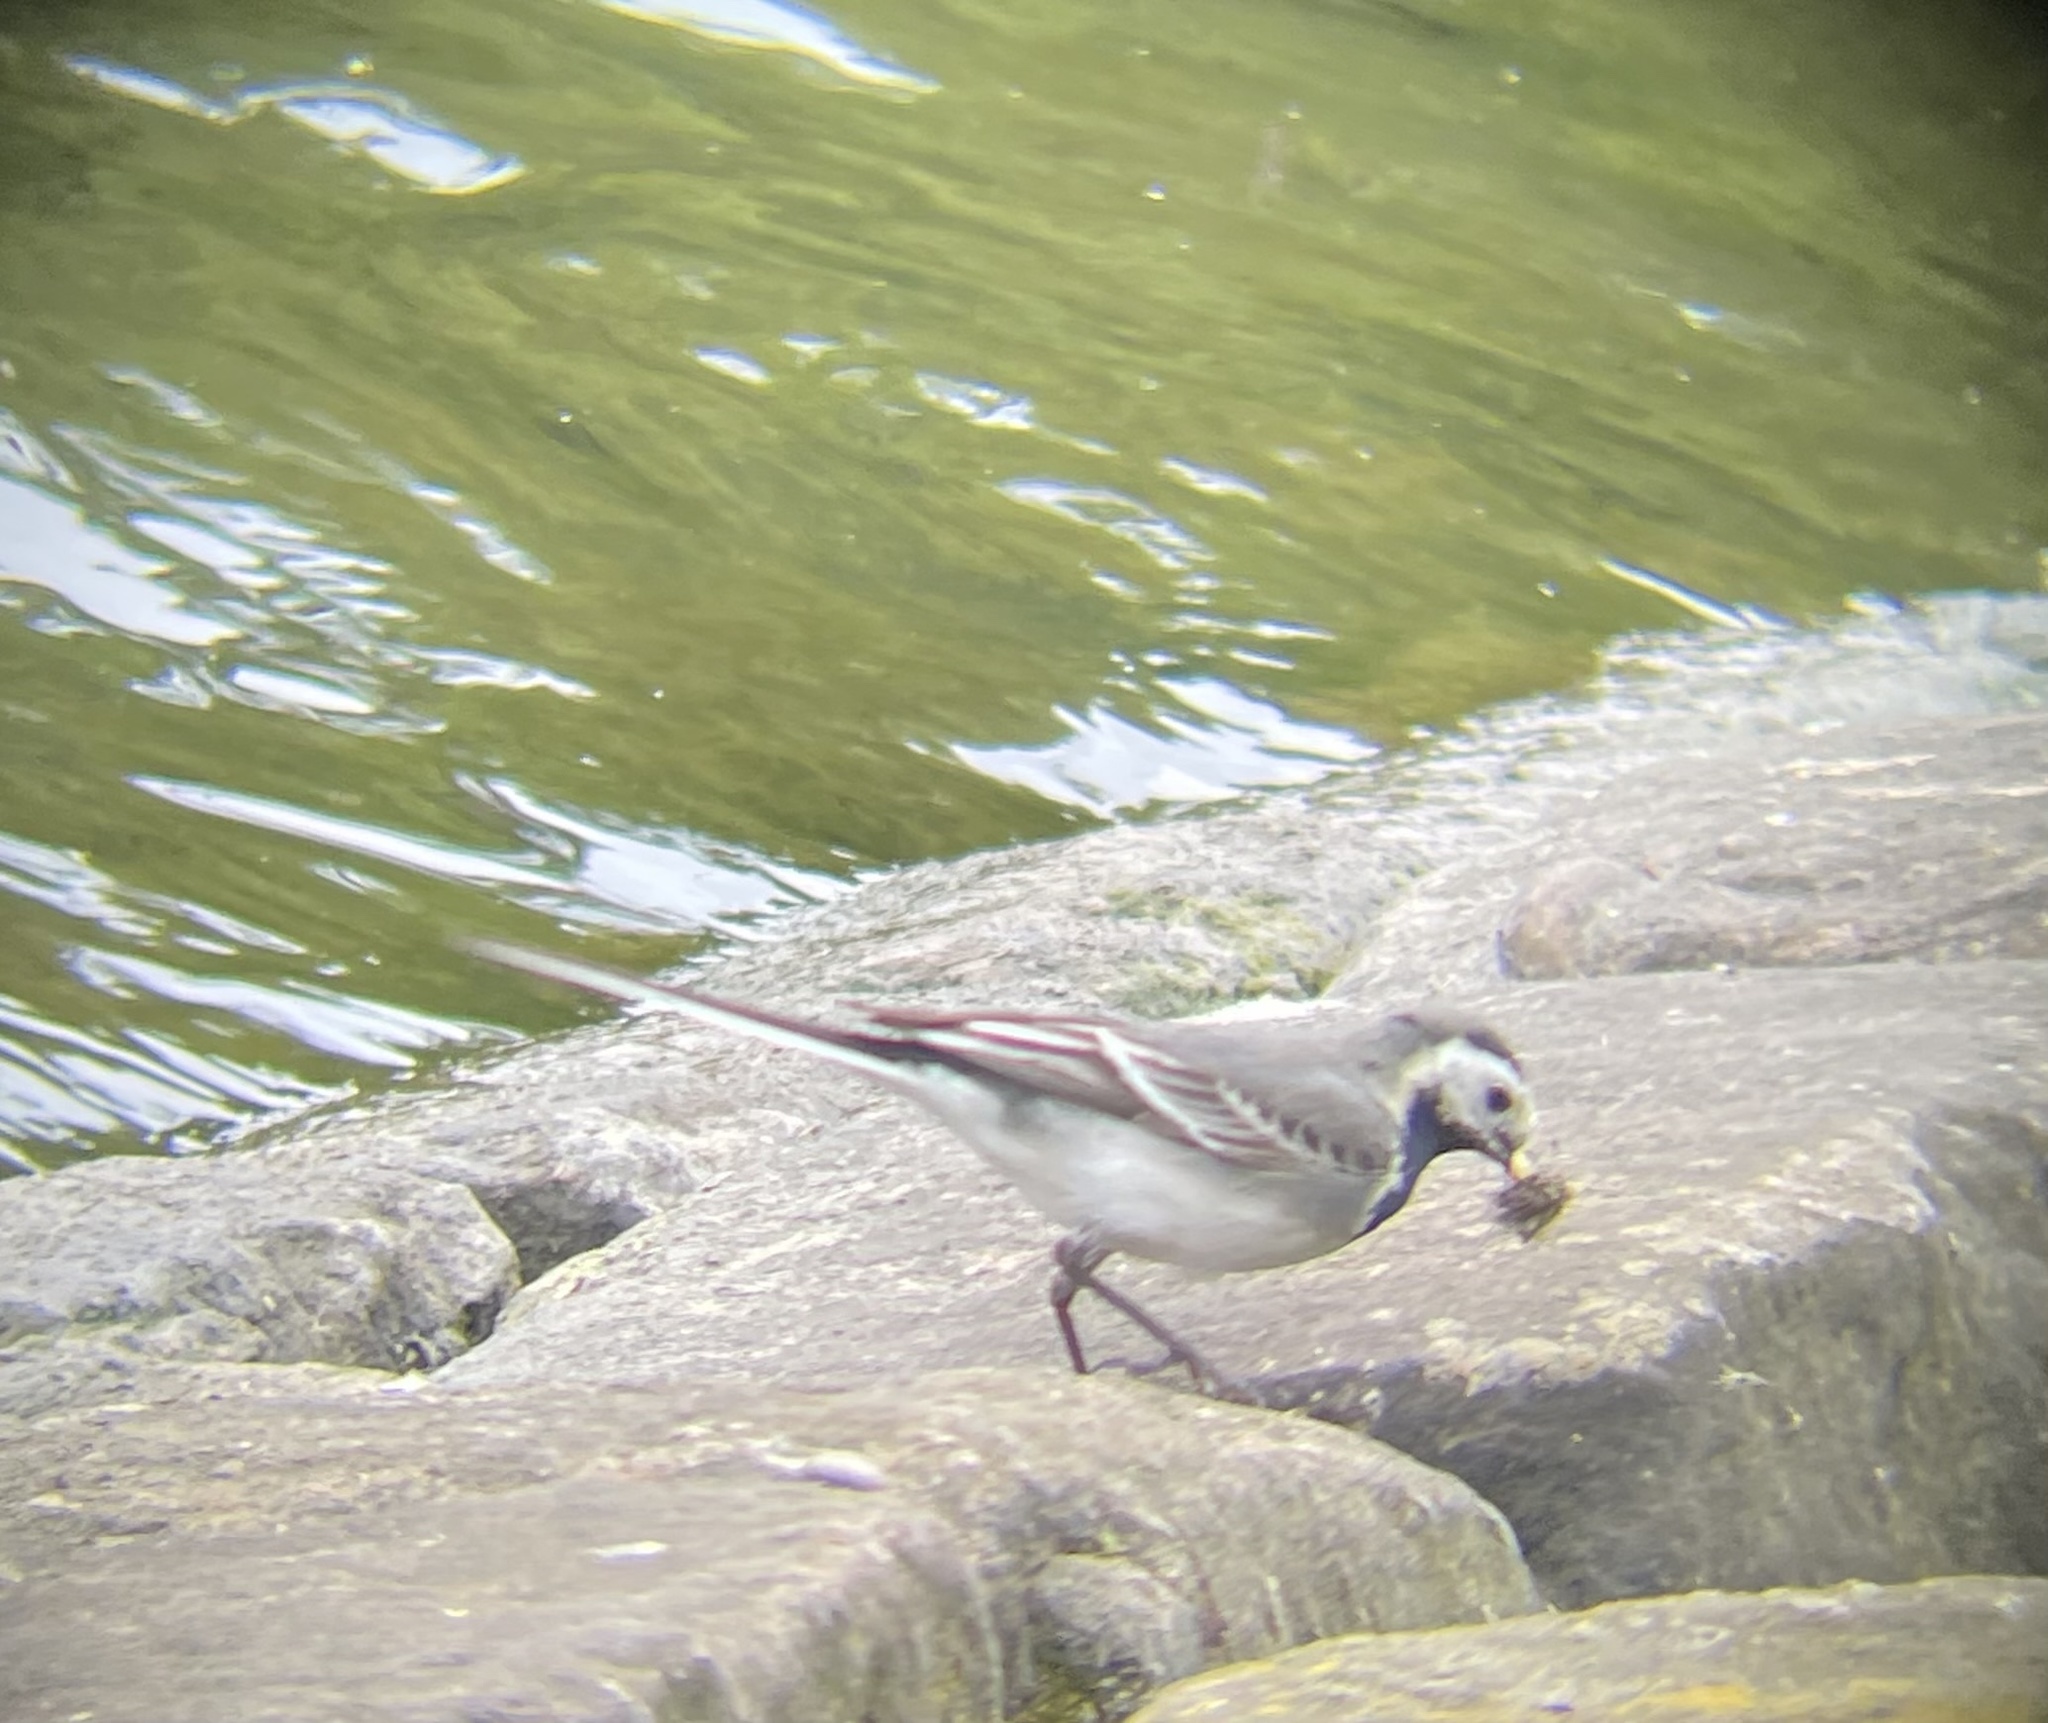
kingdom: Animalia
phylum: Chordata
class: Aves
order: Passeriformes
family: Motacillidae
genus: Motacilla
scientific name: Motacilla alba
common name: White wagtail
